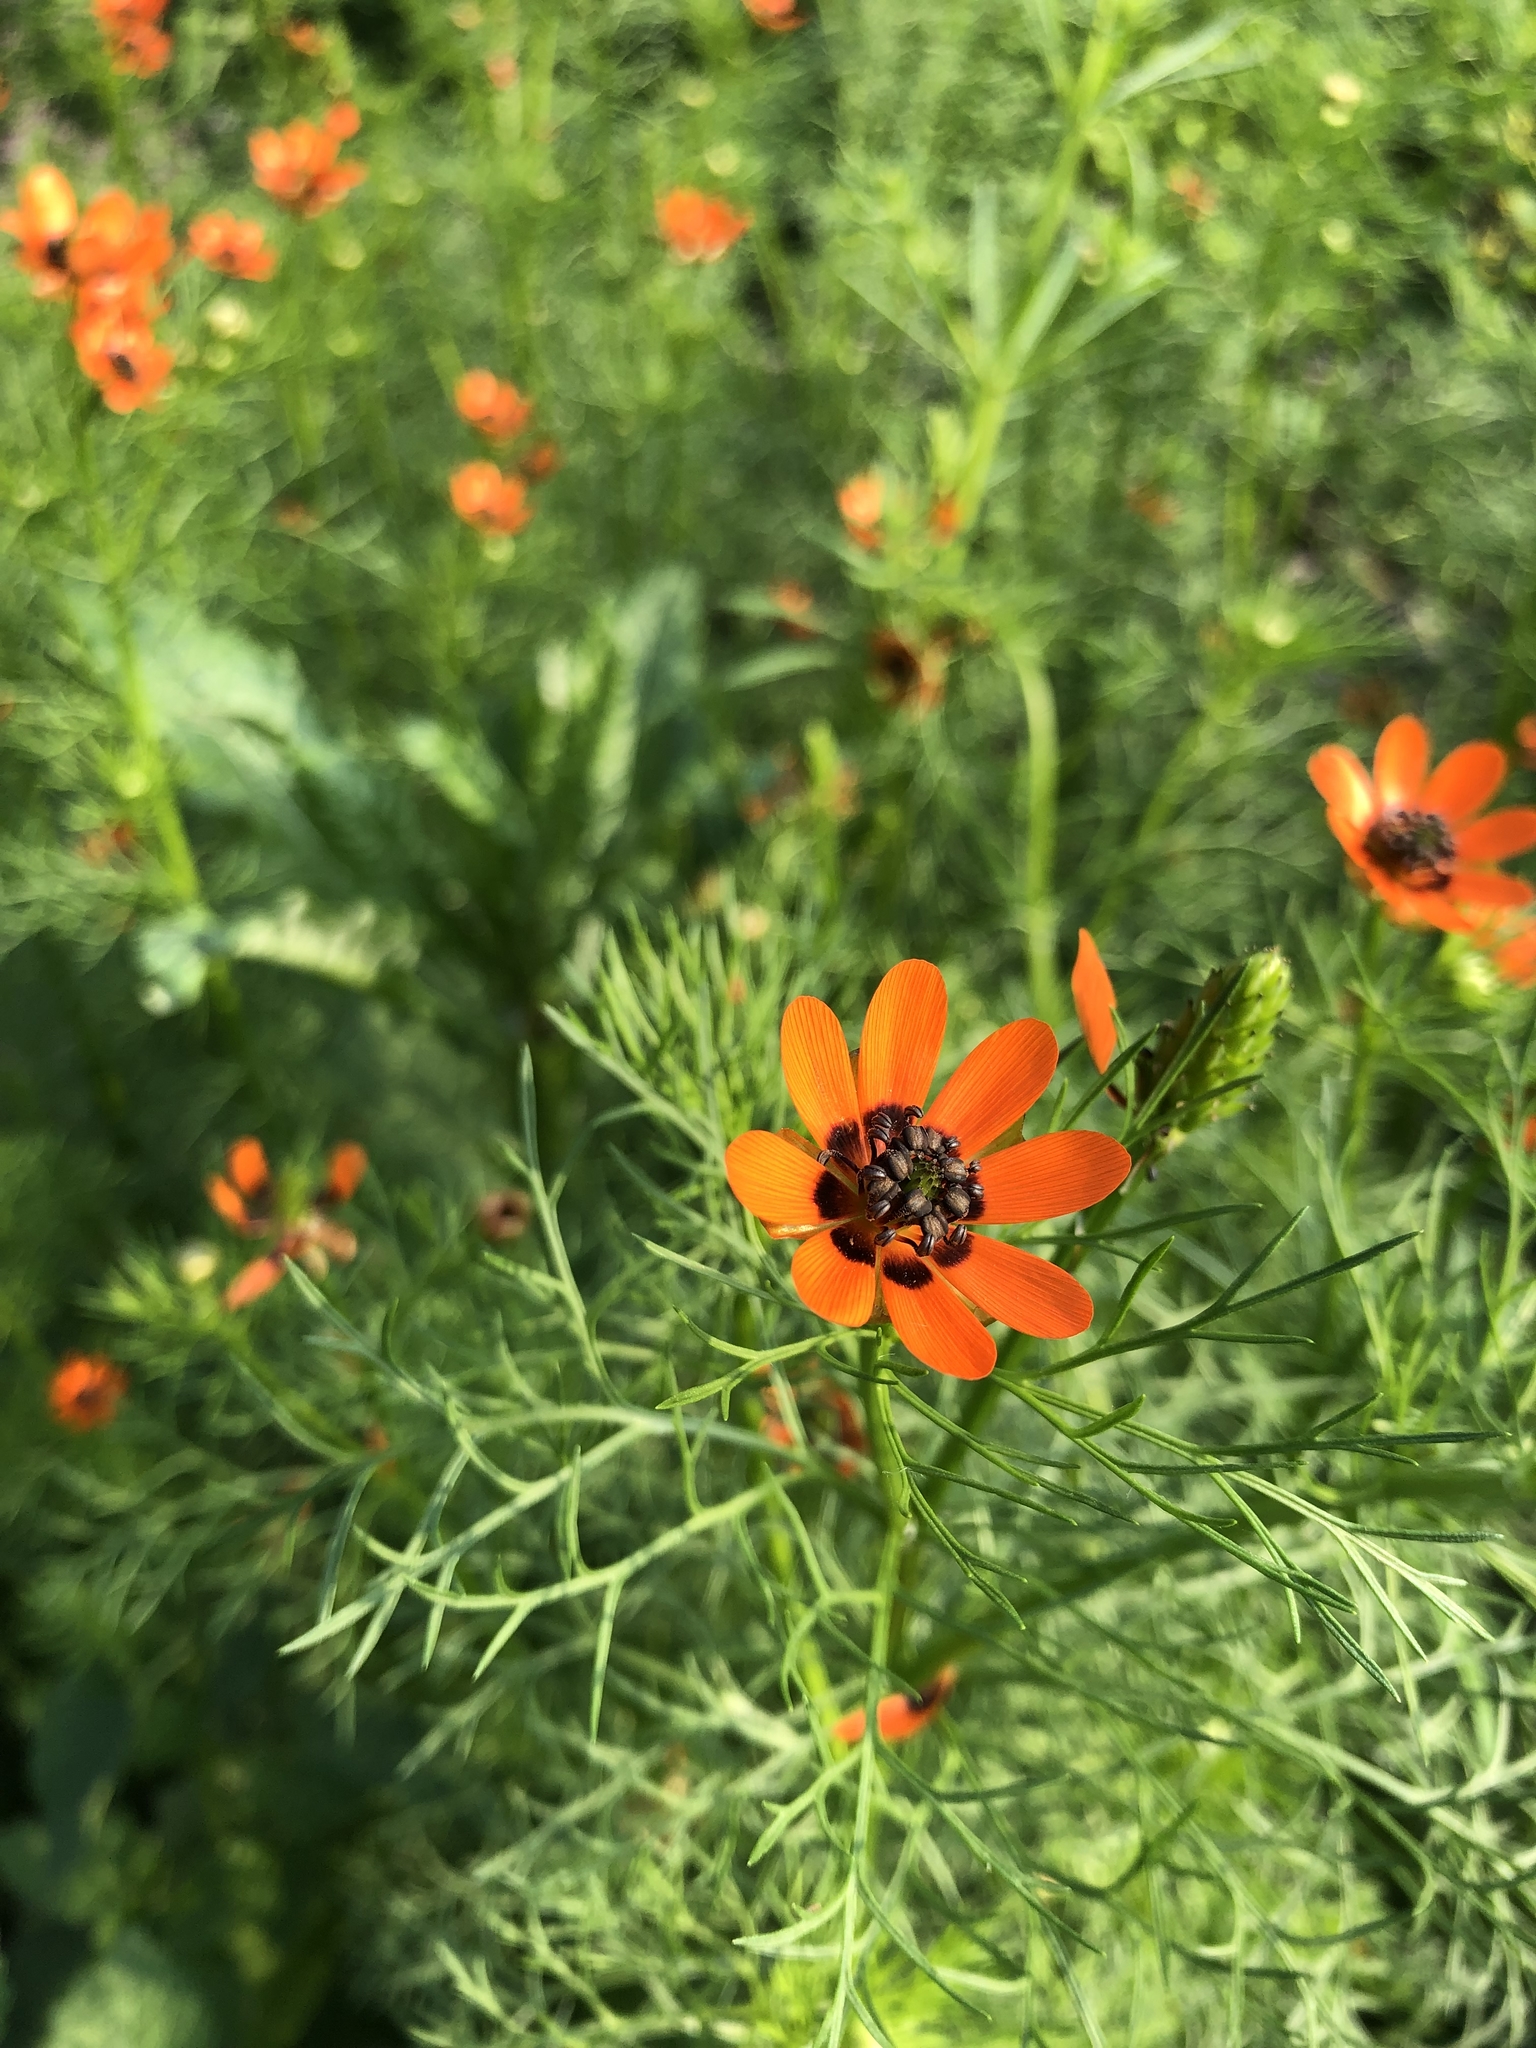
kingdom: Plantae
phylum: Tracheophyta
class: Magnoliopsida
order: Ranunculales
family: Ranunculaceae
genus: Adonis
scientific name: Adonis aestivalis
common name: Summer pheasant's-eye
